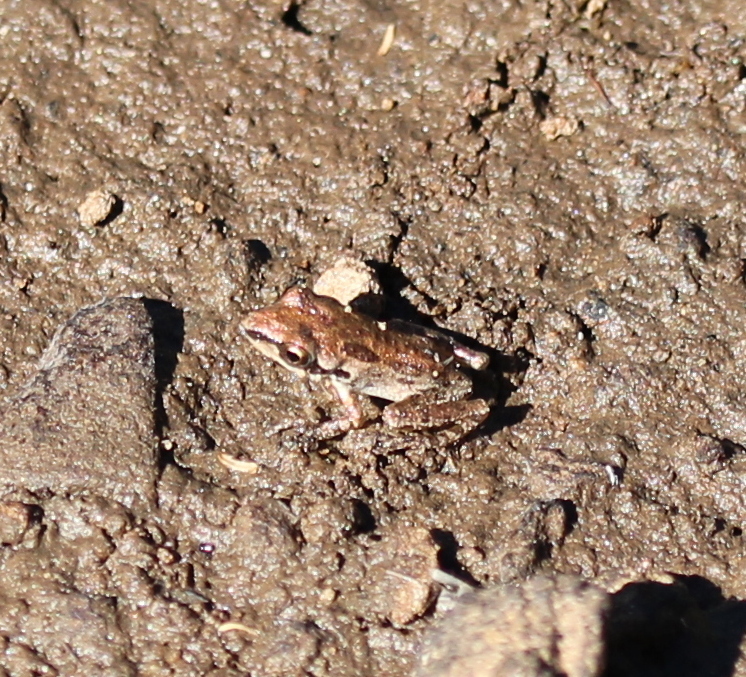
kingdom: Animalia
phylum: Chordata
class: Amphibia
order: Anura
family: Hylidae
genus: Pseudacris
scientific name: Pseudacris regilla
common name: Pacific chorus frog
